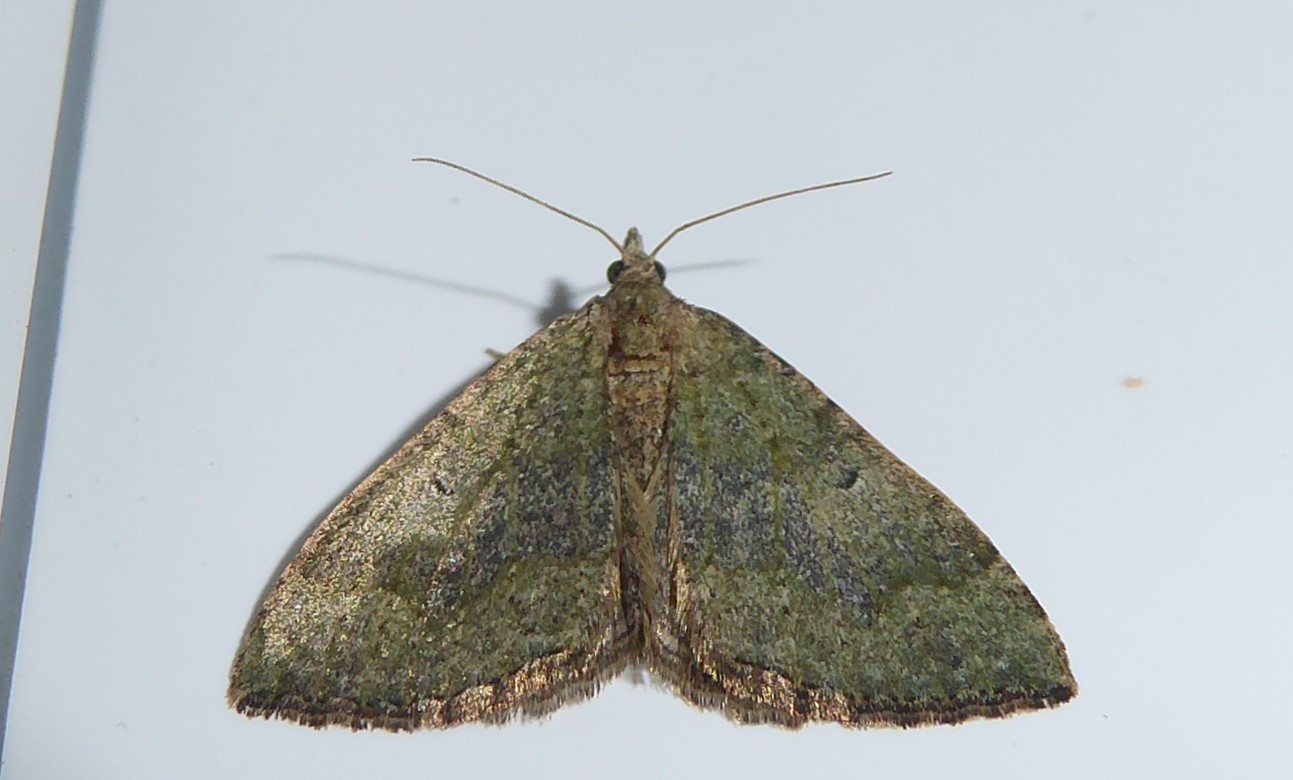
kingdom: Animalia
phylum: Arthropoda
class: Insecta
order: Lepidoptera
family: Geometridae
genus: Epyaxa
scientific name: Epyaxa rosearia
